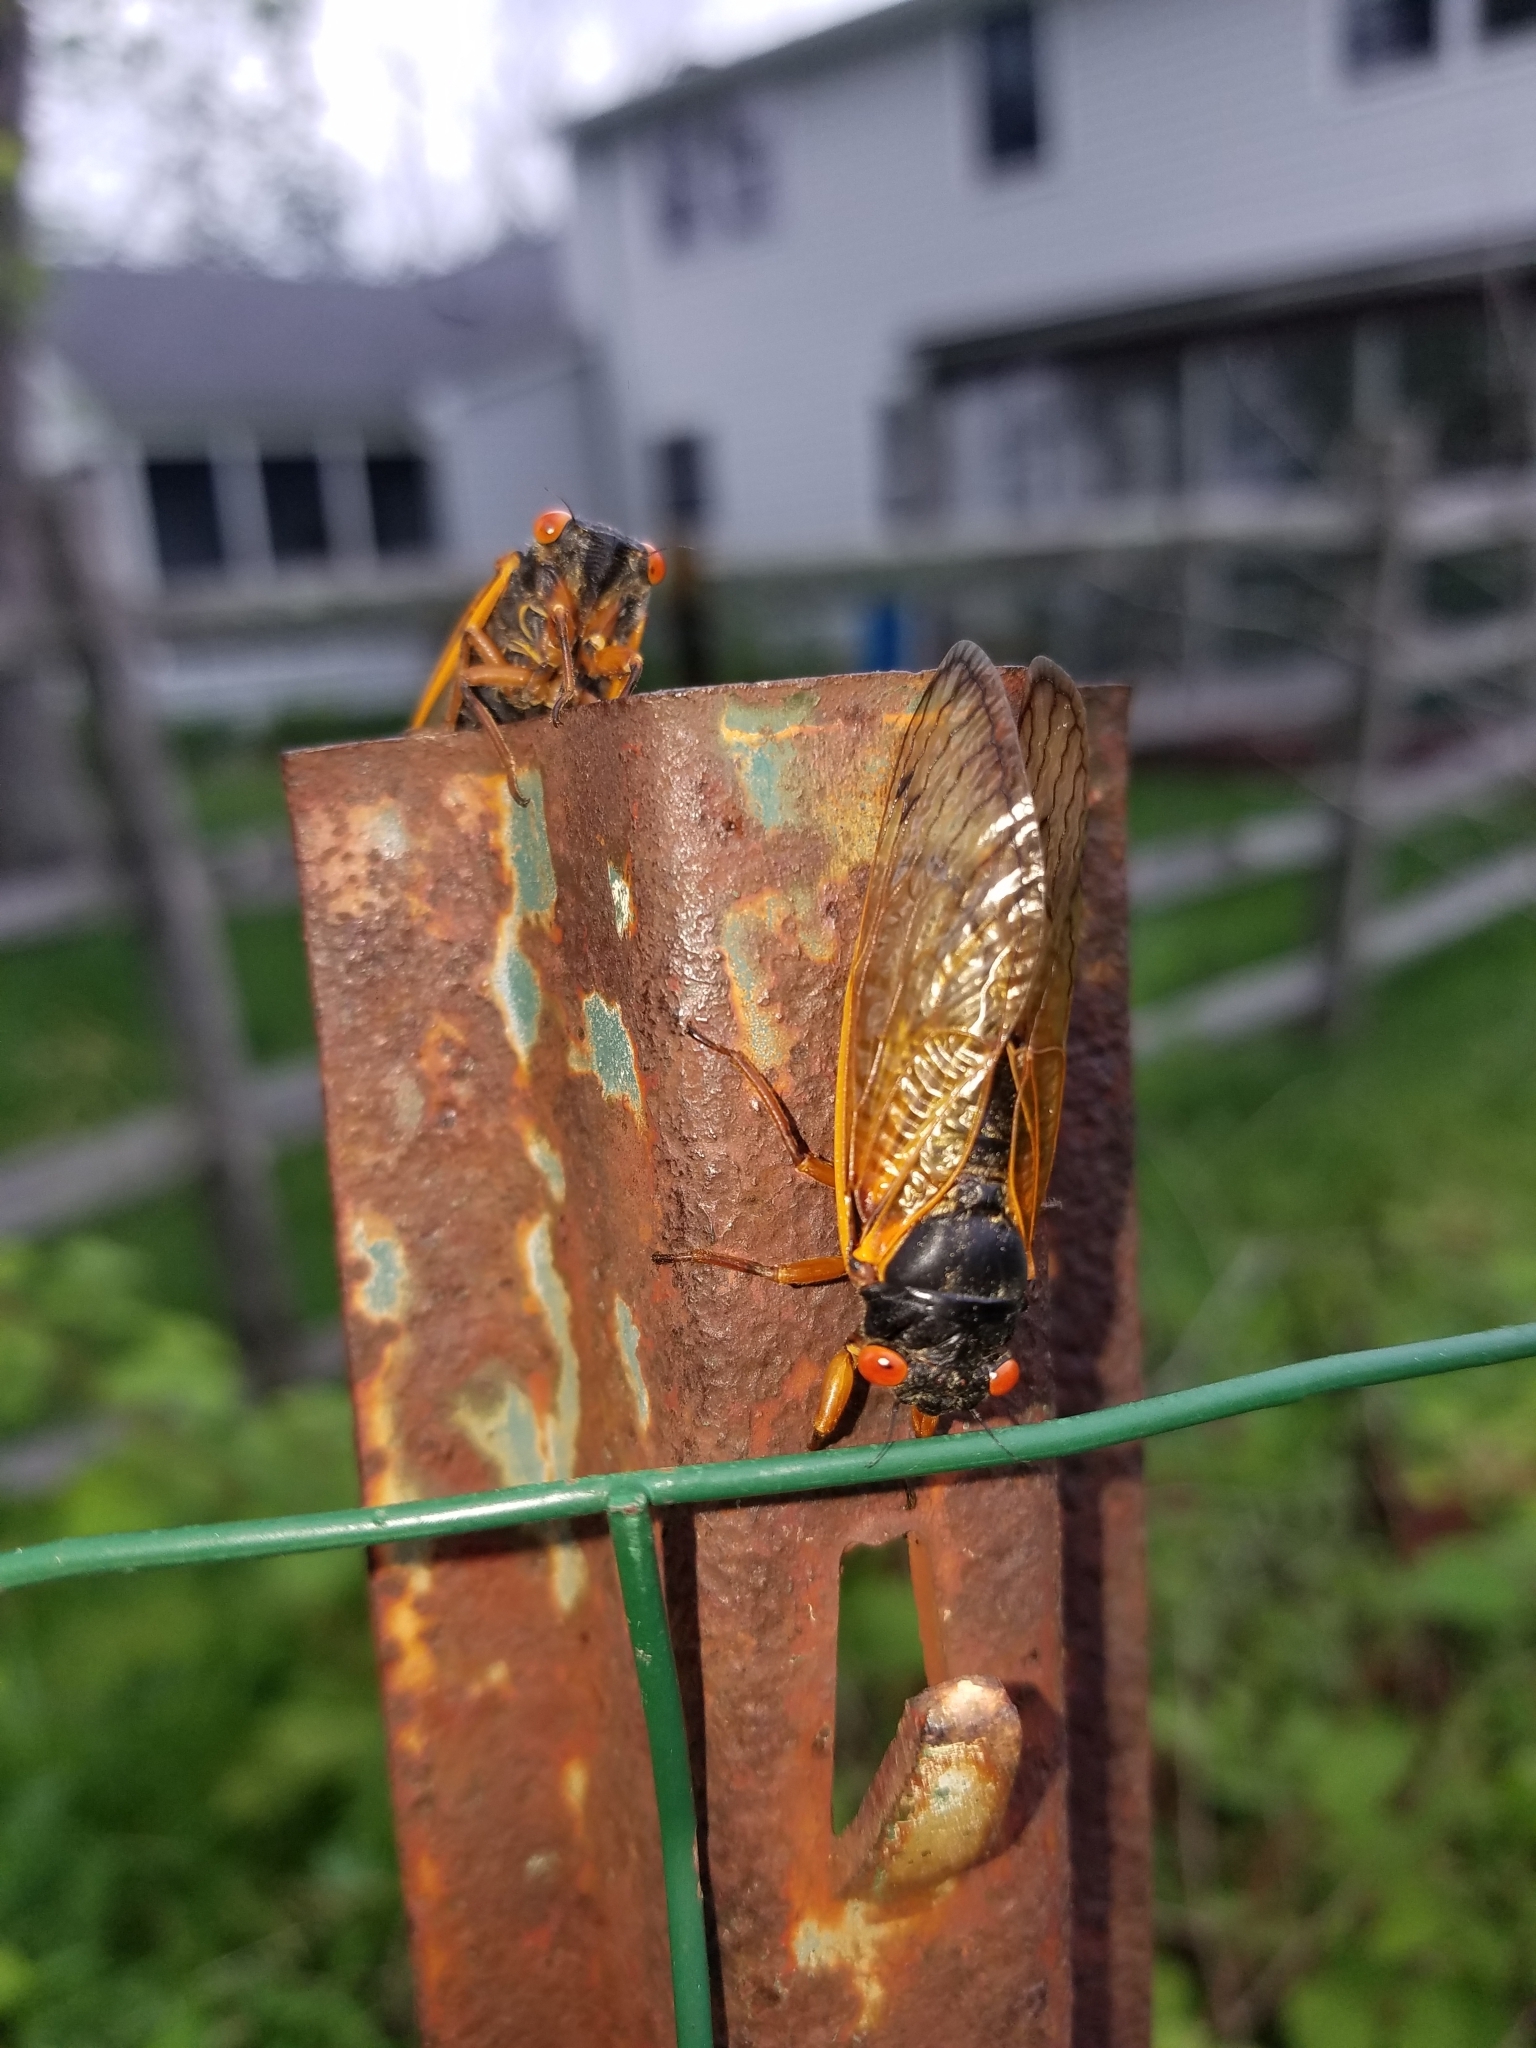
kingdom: Animalia
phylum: Arthropoda
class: Insecta
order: Hemiptera
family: Cicadidae
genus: Magicicada
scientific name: Magicicada
